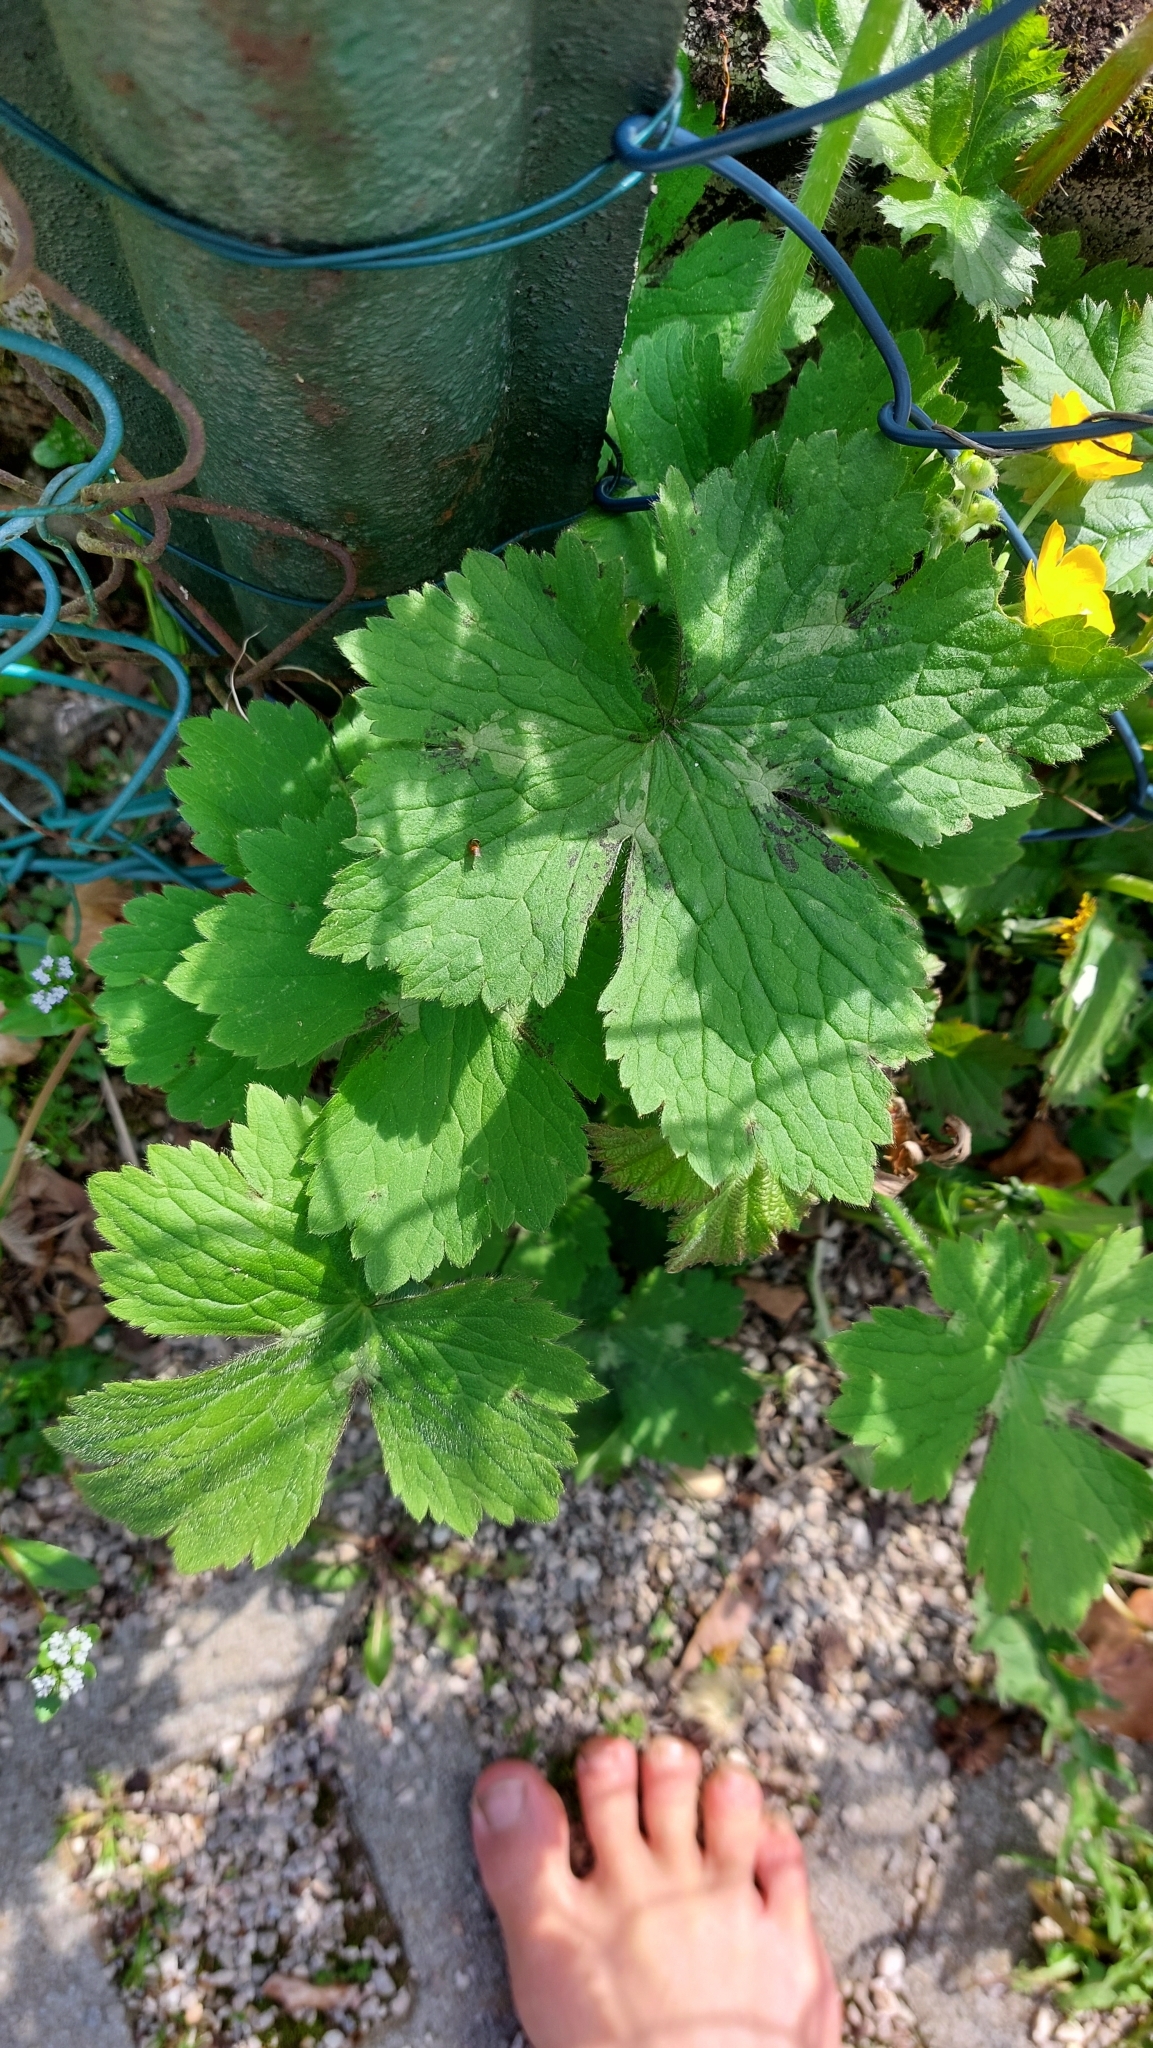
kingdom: Plantae
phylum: Tracheophyta
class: Magnoliopsida
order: Ranunculales
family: Ranunculaceae
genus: Ranunculus
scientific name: Ranunculus lanuginosus
